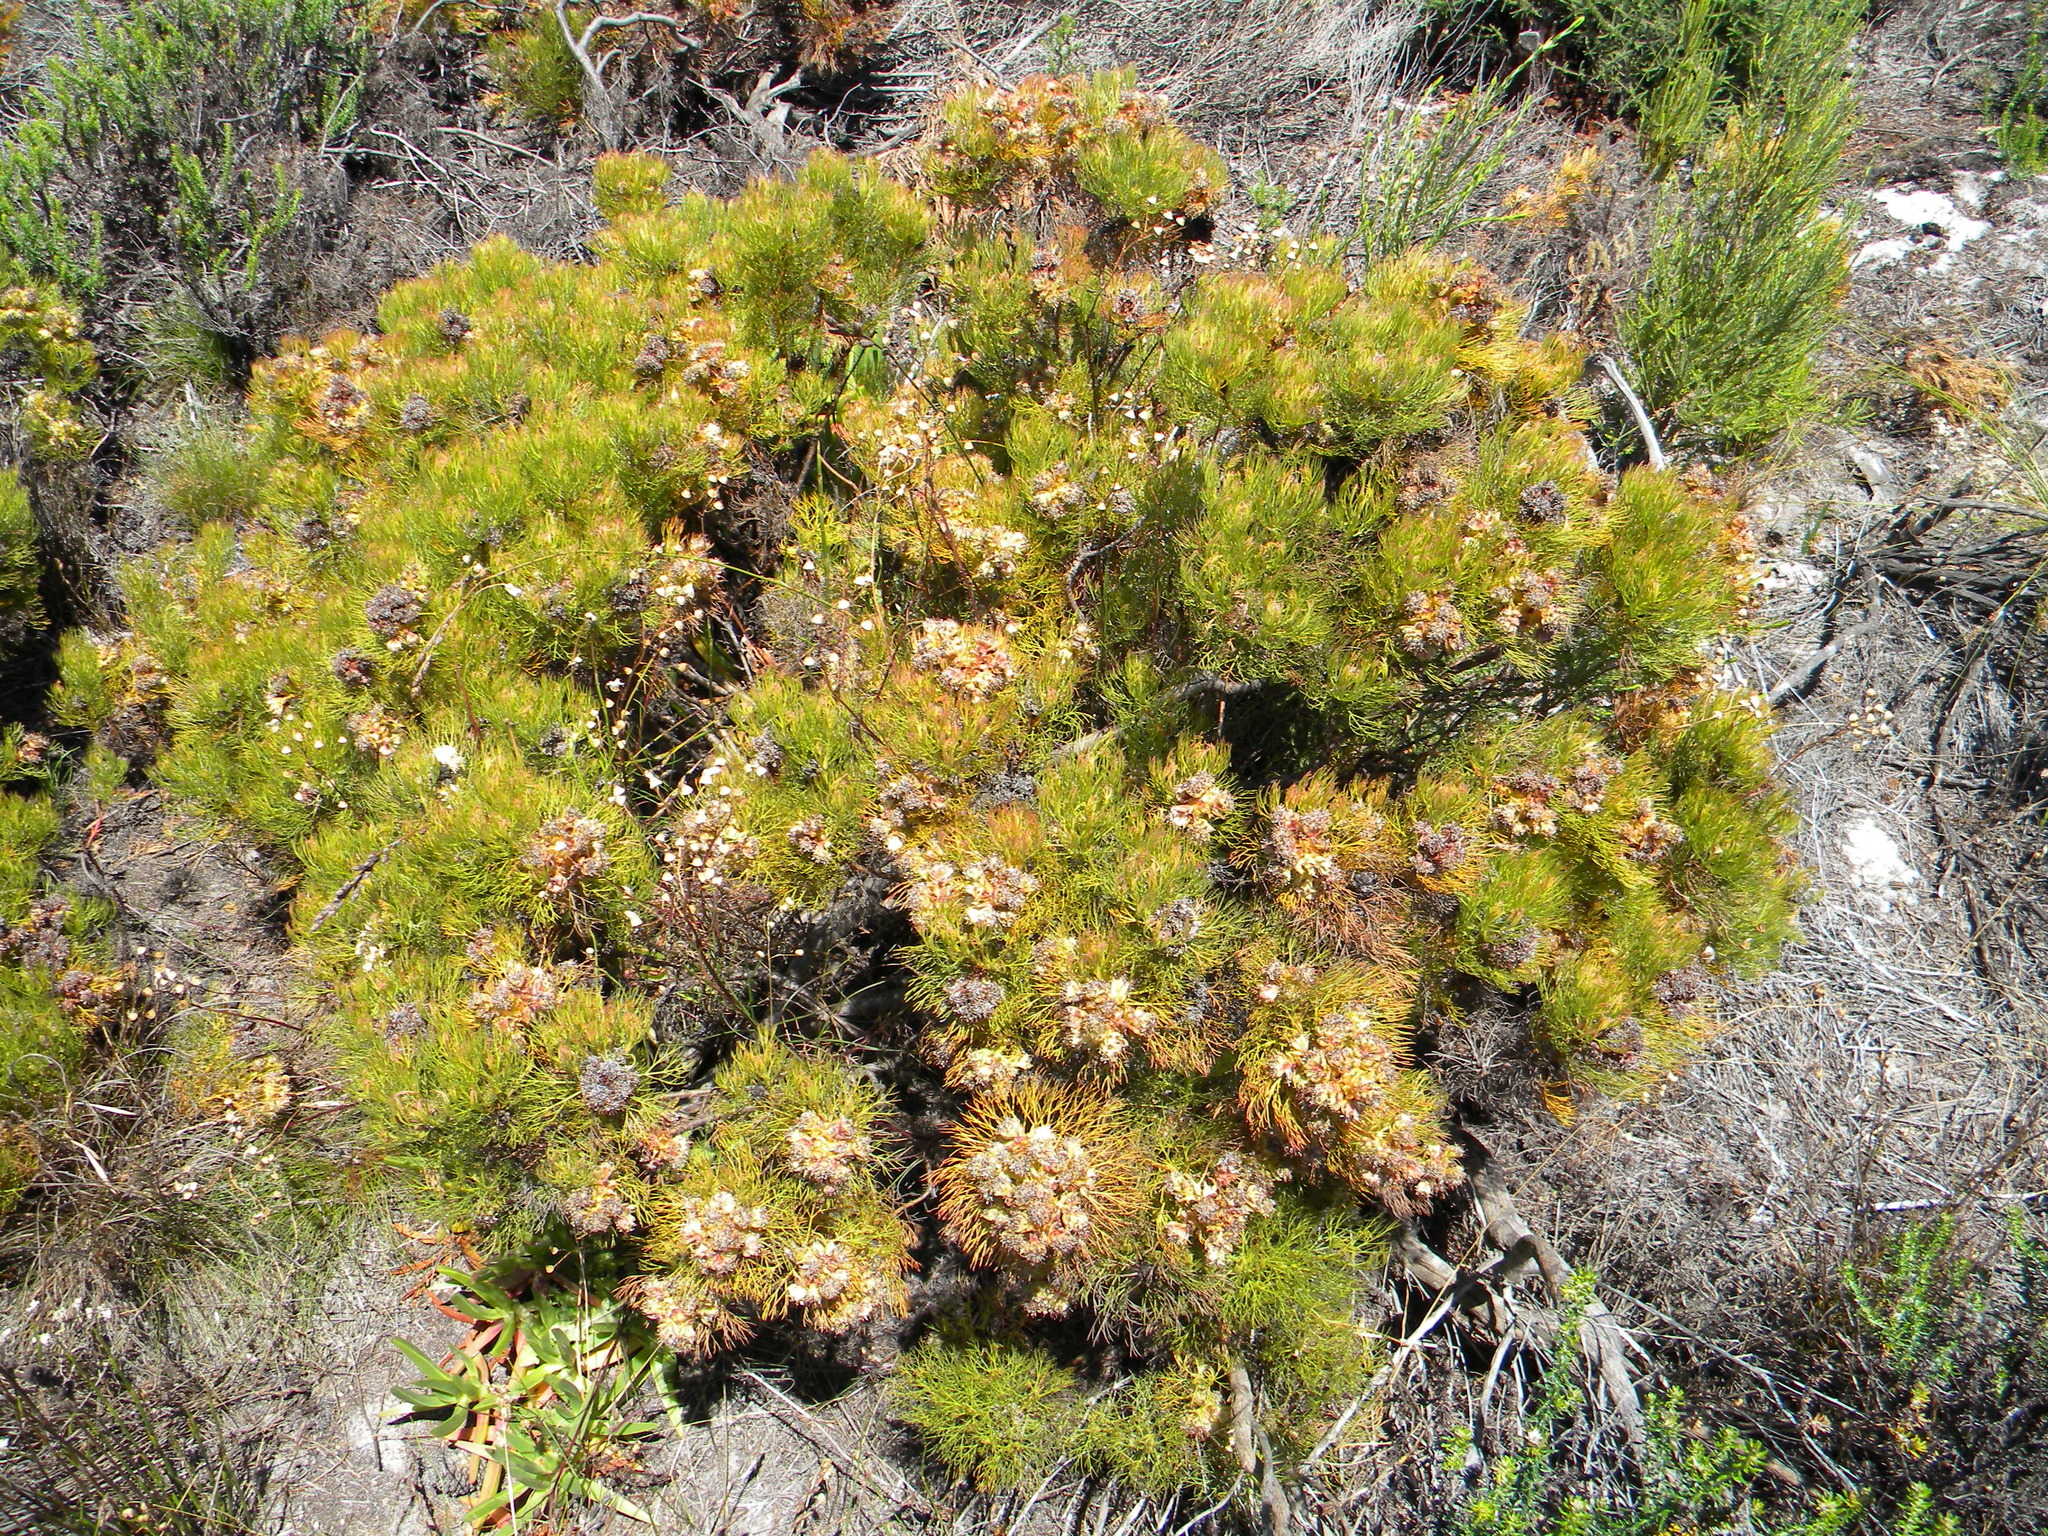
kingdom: Plantae
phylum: Tracheophyta
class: Magnoliopsida
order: Proteales
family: Proteaceae
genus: Serruria
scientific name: Serruria glomerata
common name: Cluster spiderhead
